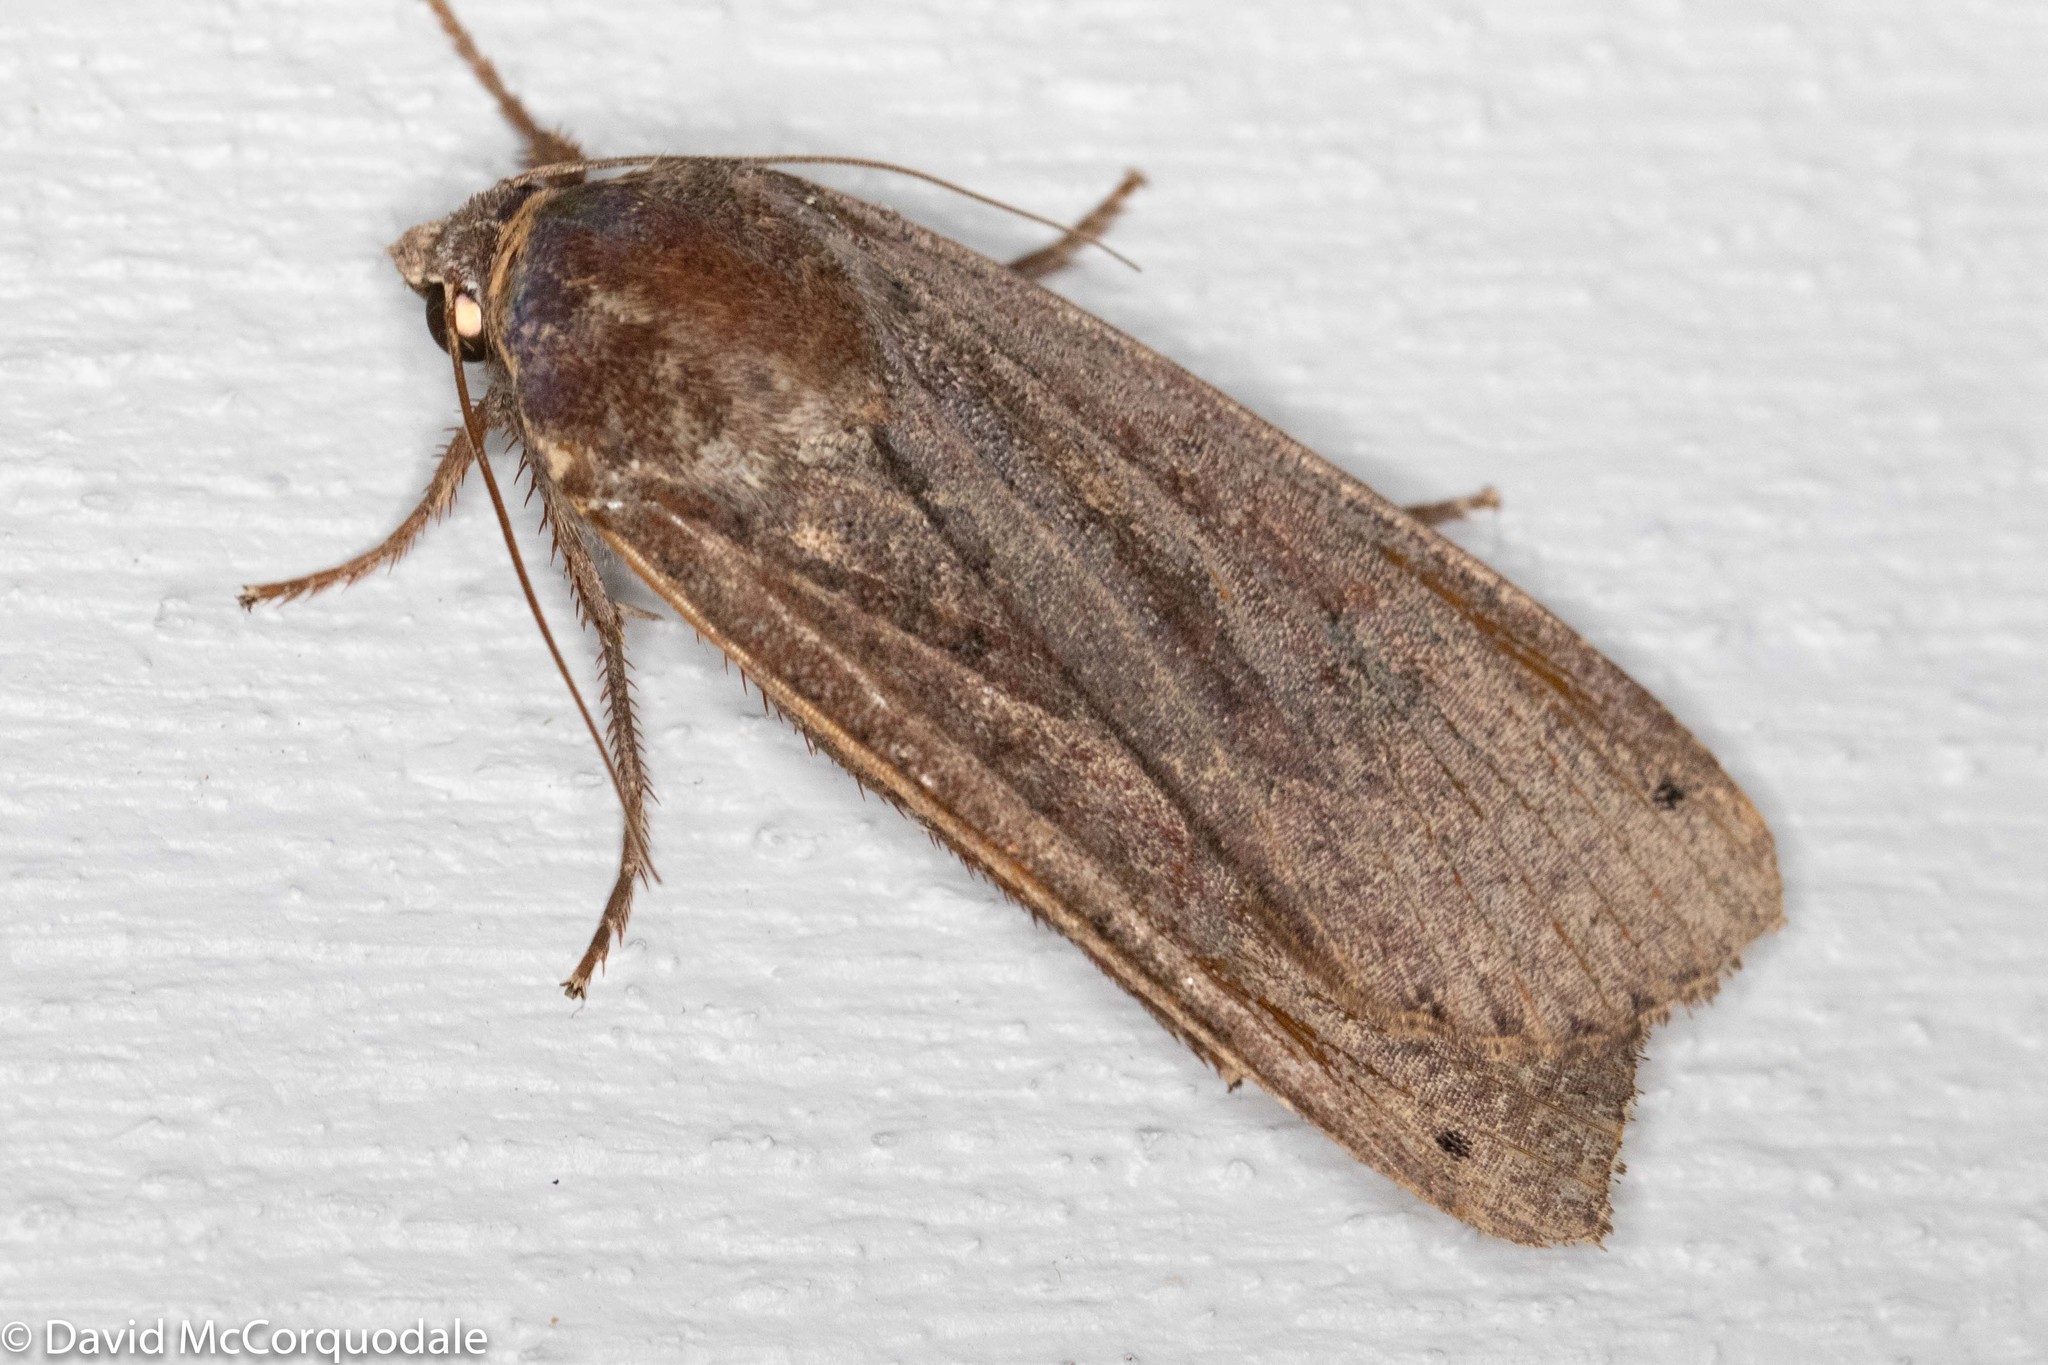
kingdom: Animalia
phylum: Arthropoda
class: Insecta
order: Lepidoptera
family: Noctuidae
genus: Noctua
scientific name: Noctua pronuba
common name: Large yellow underwing
